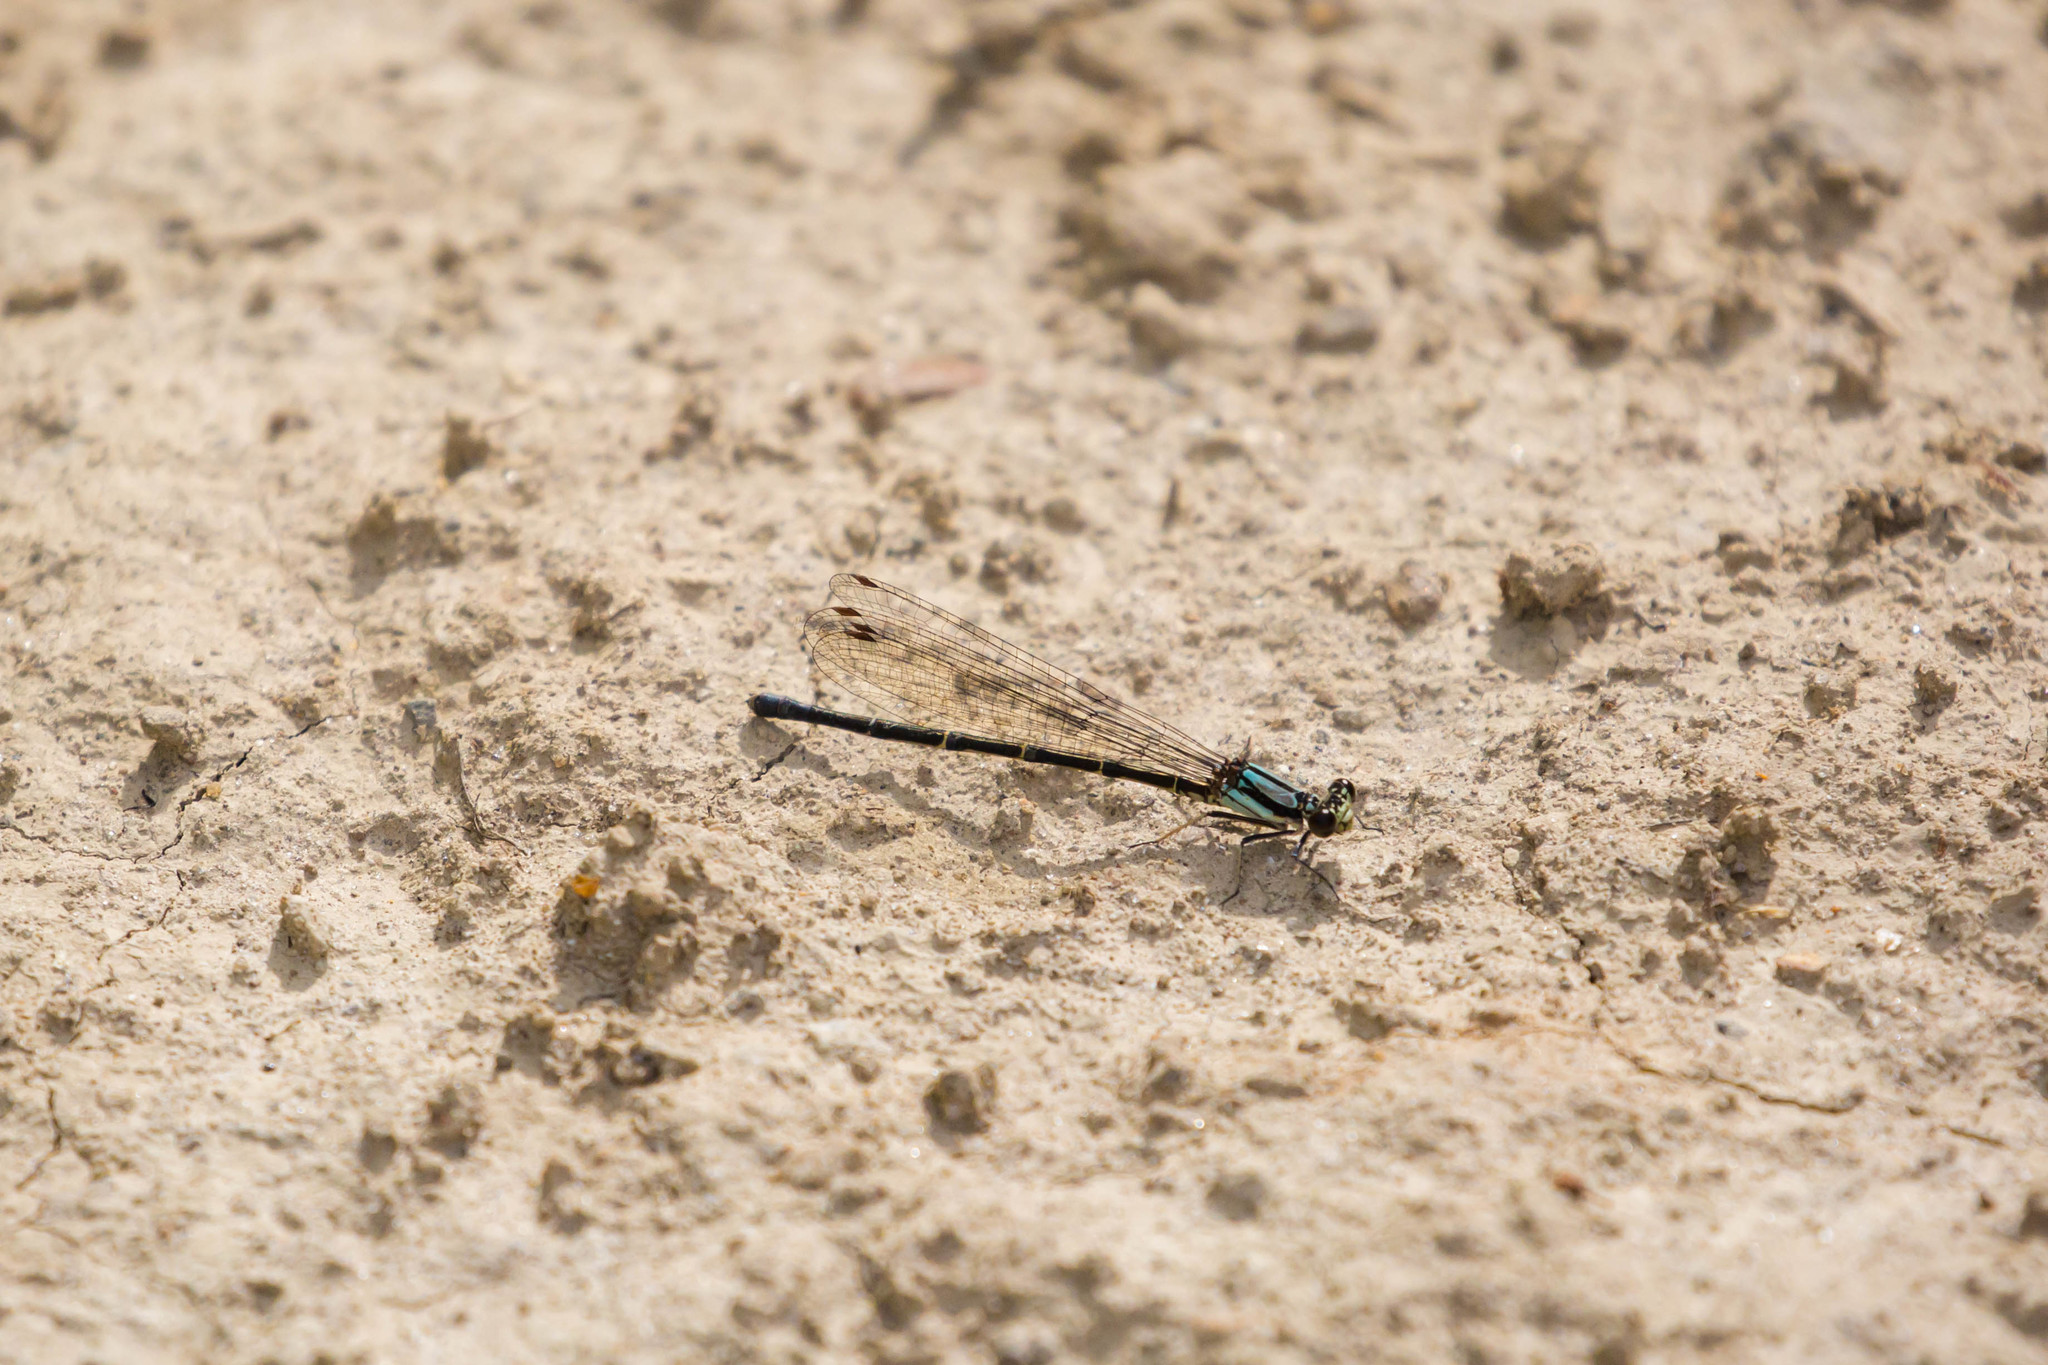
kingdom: Animalia
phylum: Arthropoda
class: Insecta
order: Odonata
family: Coenagrionidae
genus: Argia
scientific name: Argia tibialis
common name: Blue-tipped dancer
